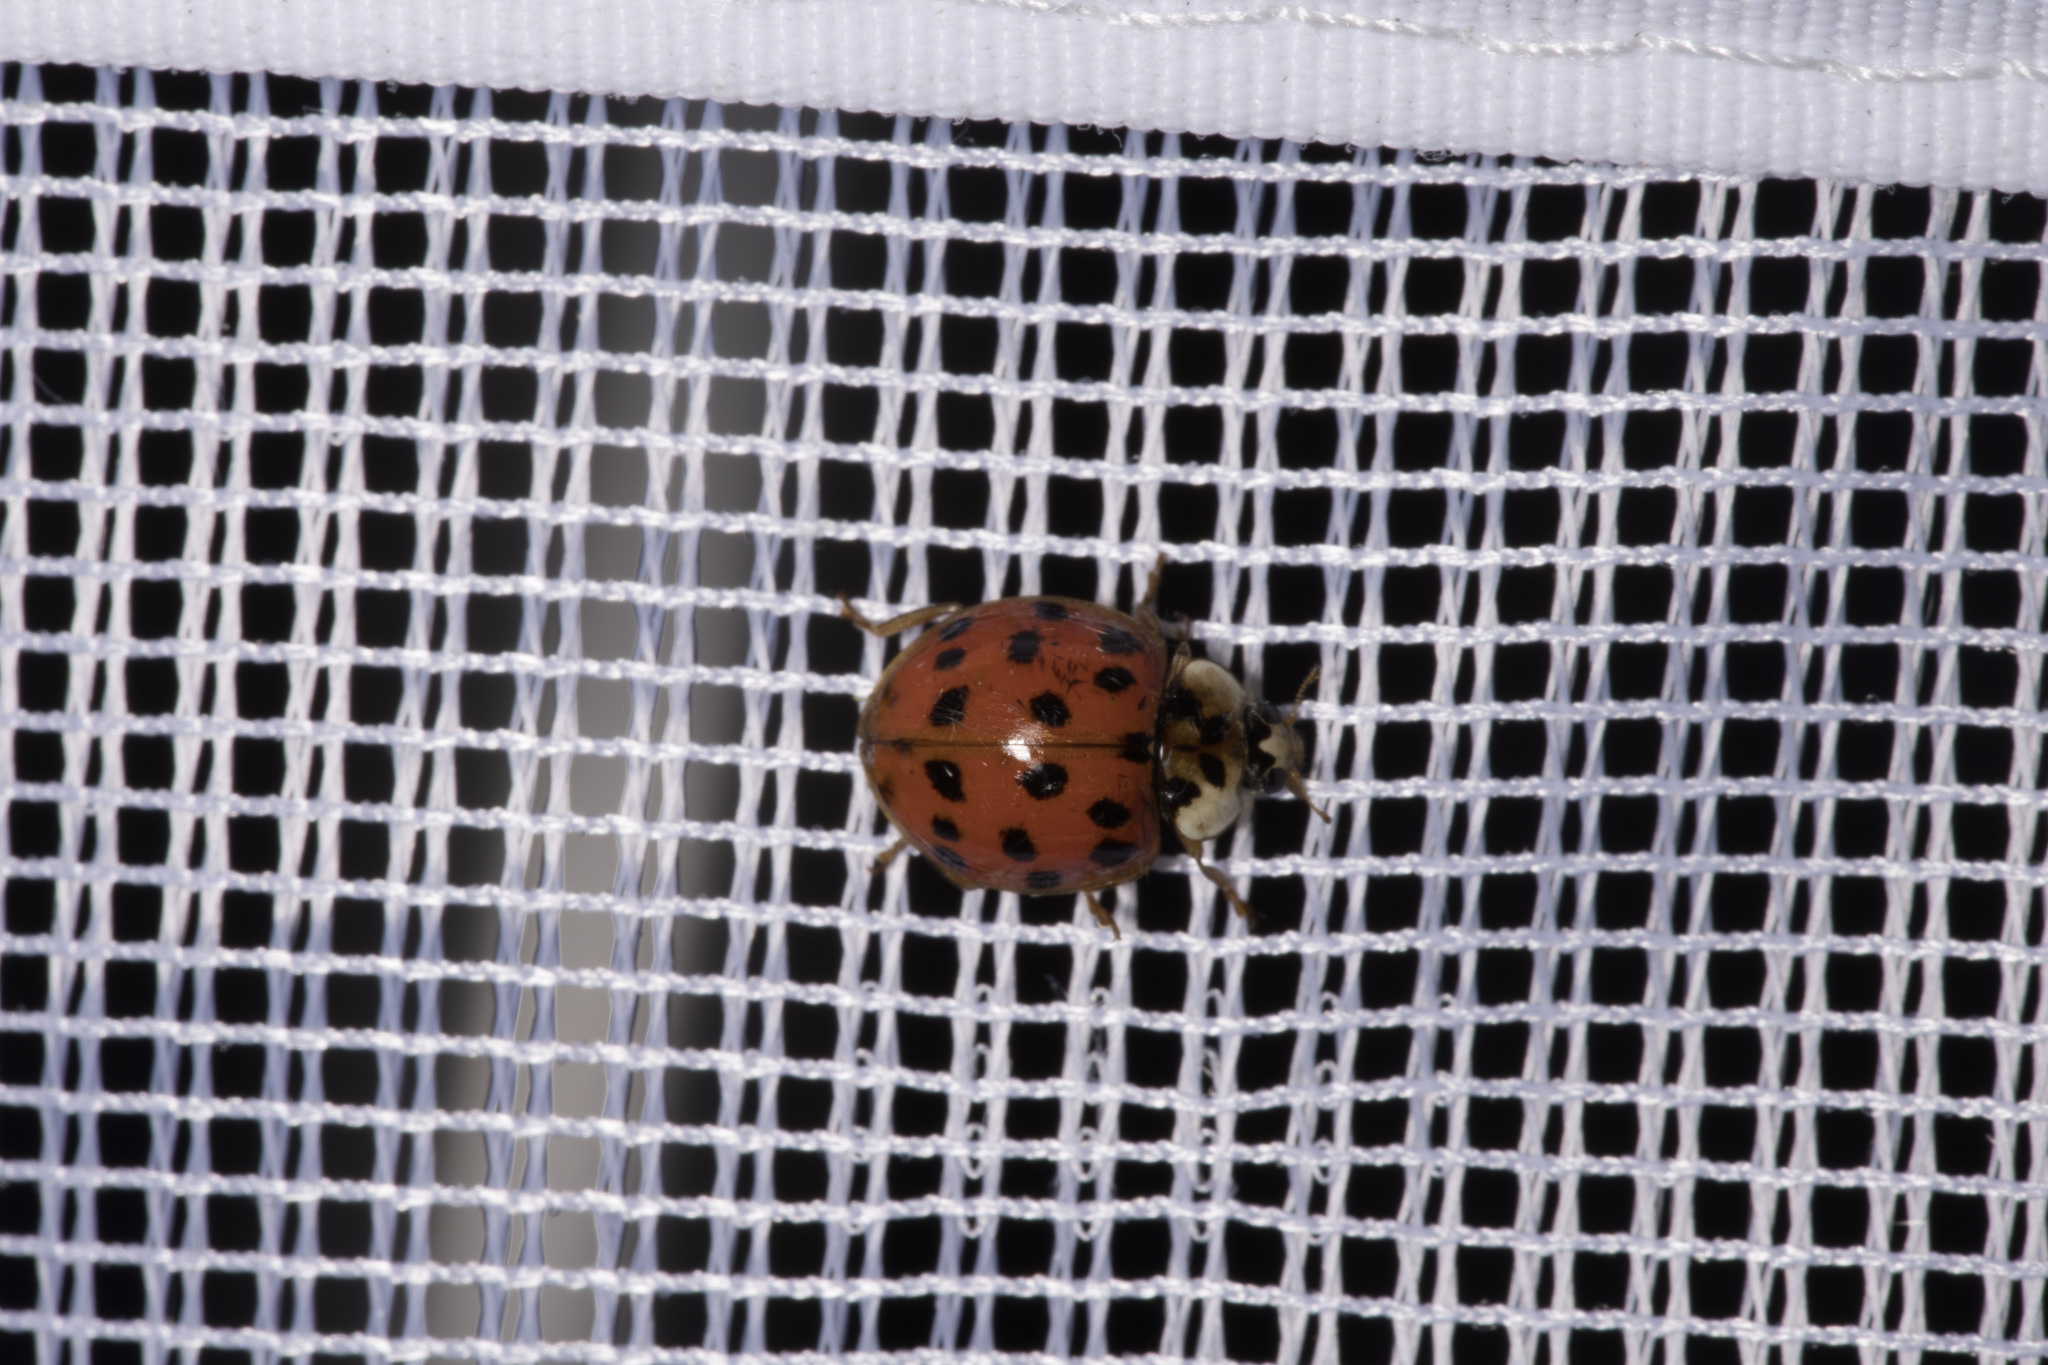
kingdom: Animalia
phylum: Arthropoda
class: Insecta
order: Coleoptera
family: Coccinellidae
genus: Harmonia
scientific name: Harmonia axyridis
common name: Harlequin ladybird
